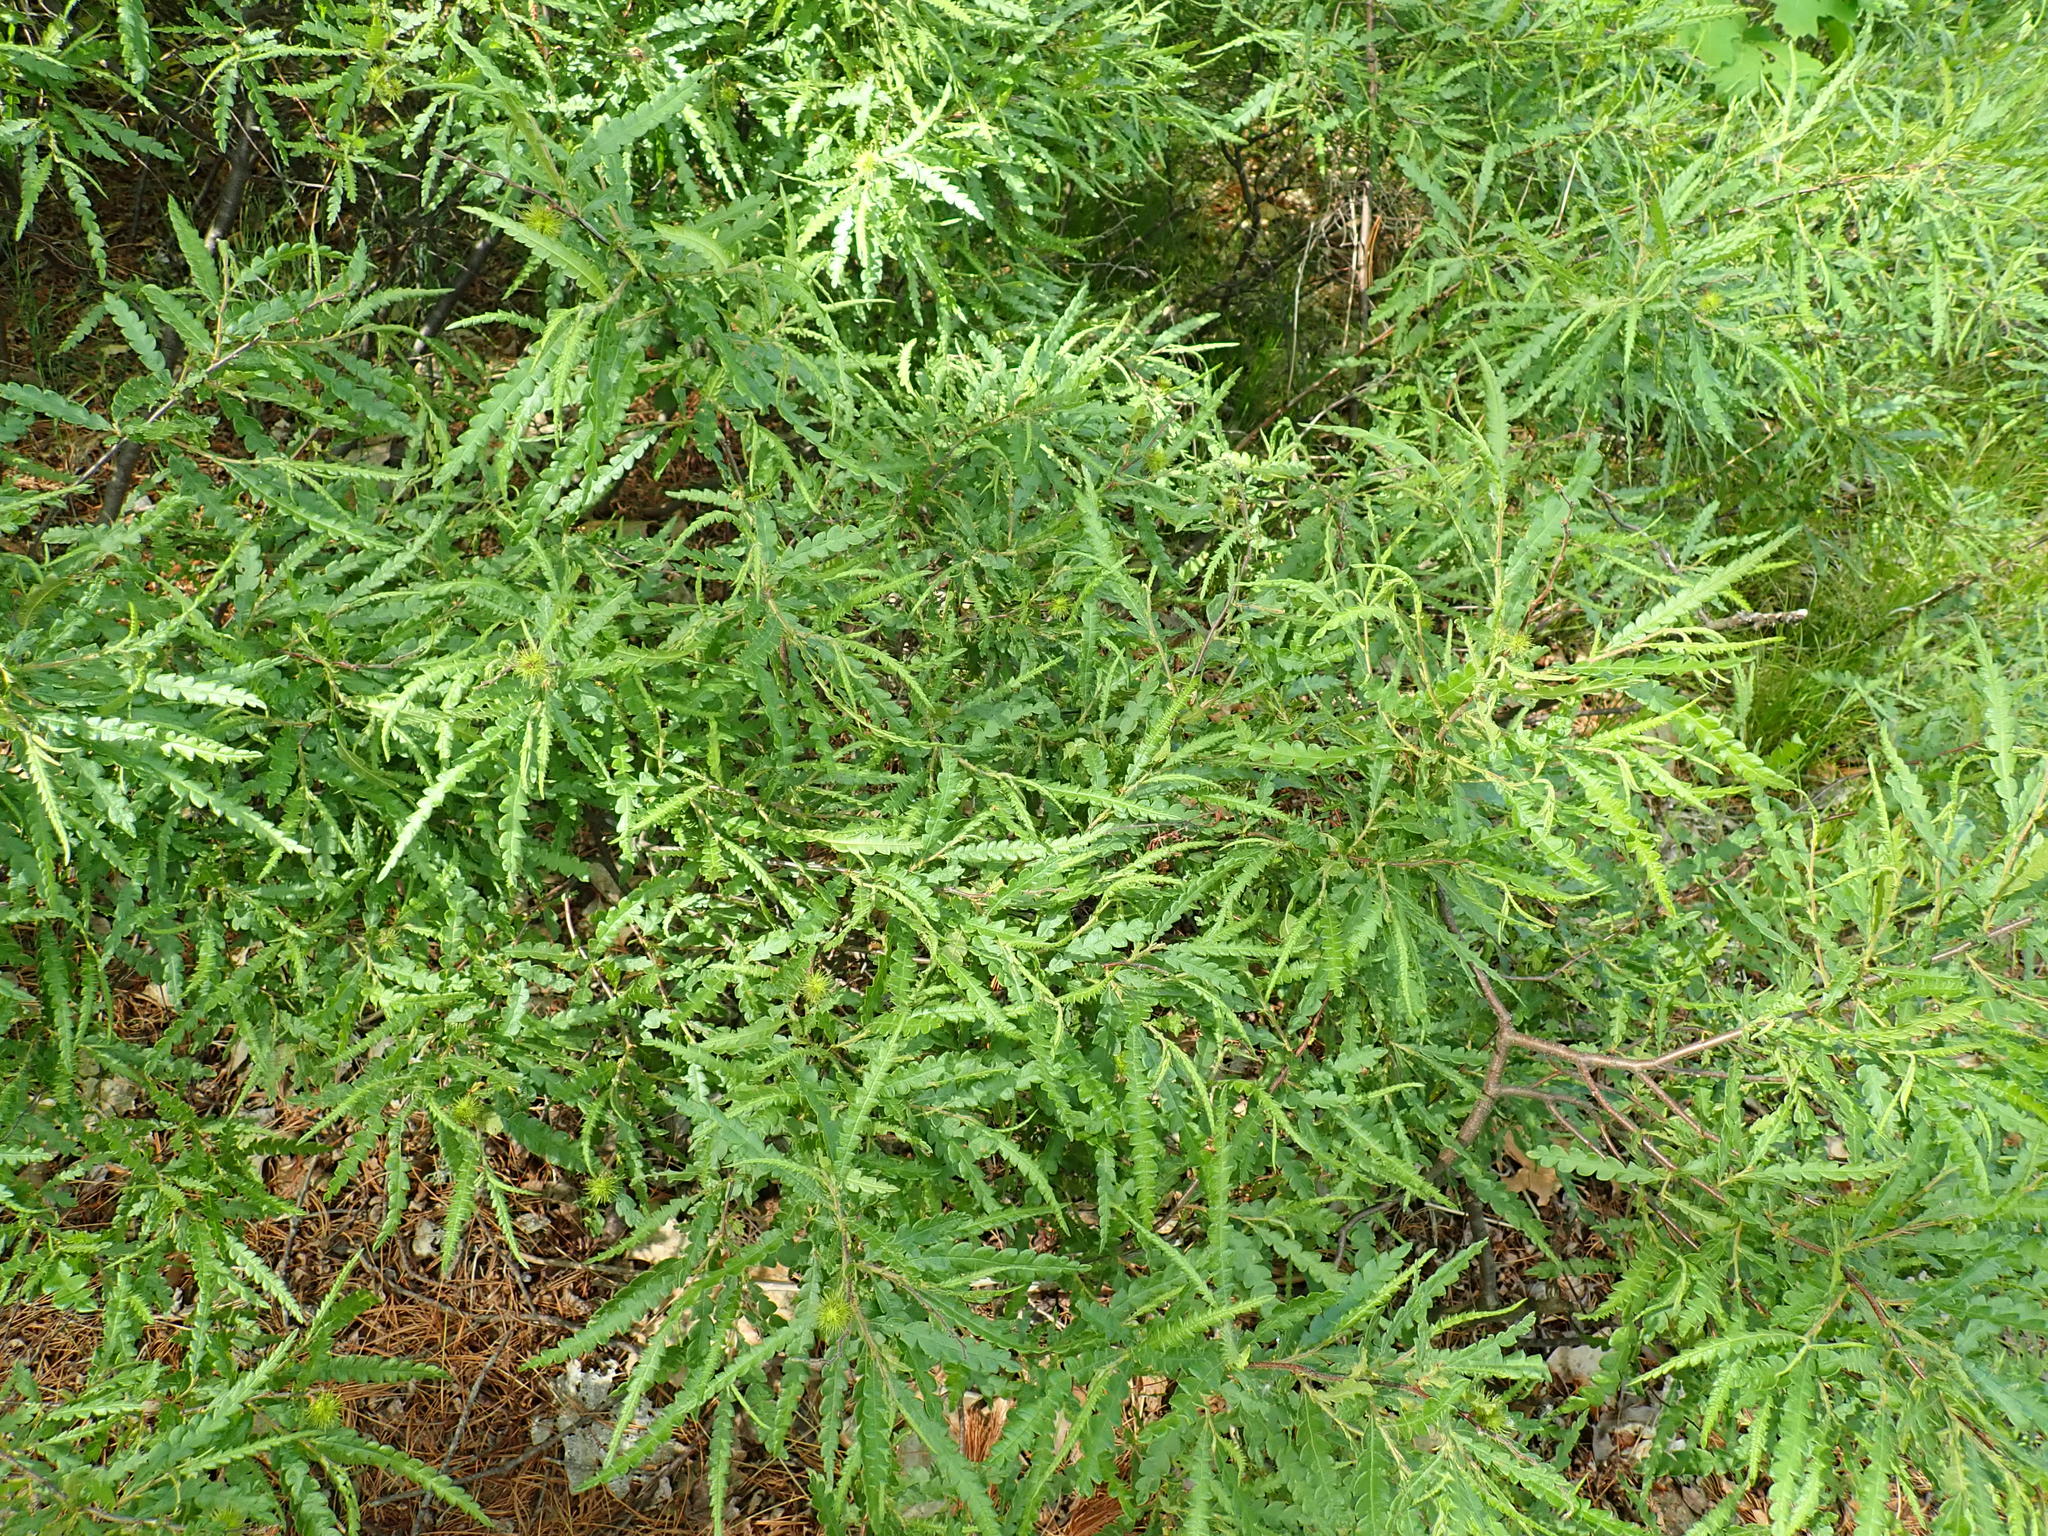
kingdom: Plantae
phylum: Tracheophyta
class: Magnoliopsida
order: Fagales
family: Myricaceae
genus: Comptonia
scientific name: Comptonia peregrina
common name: Sweet-fern
